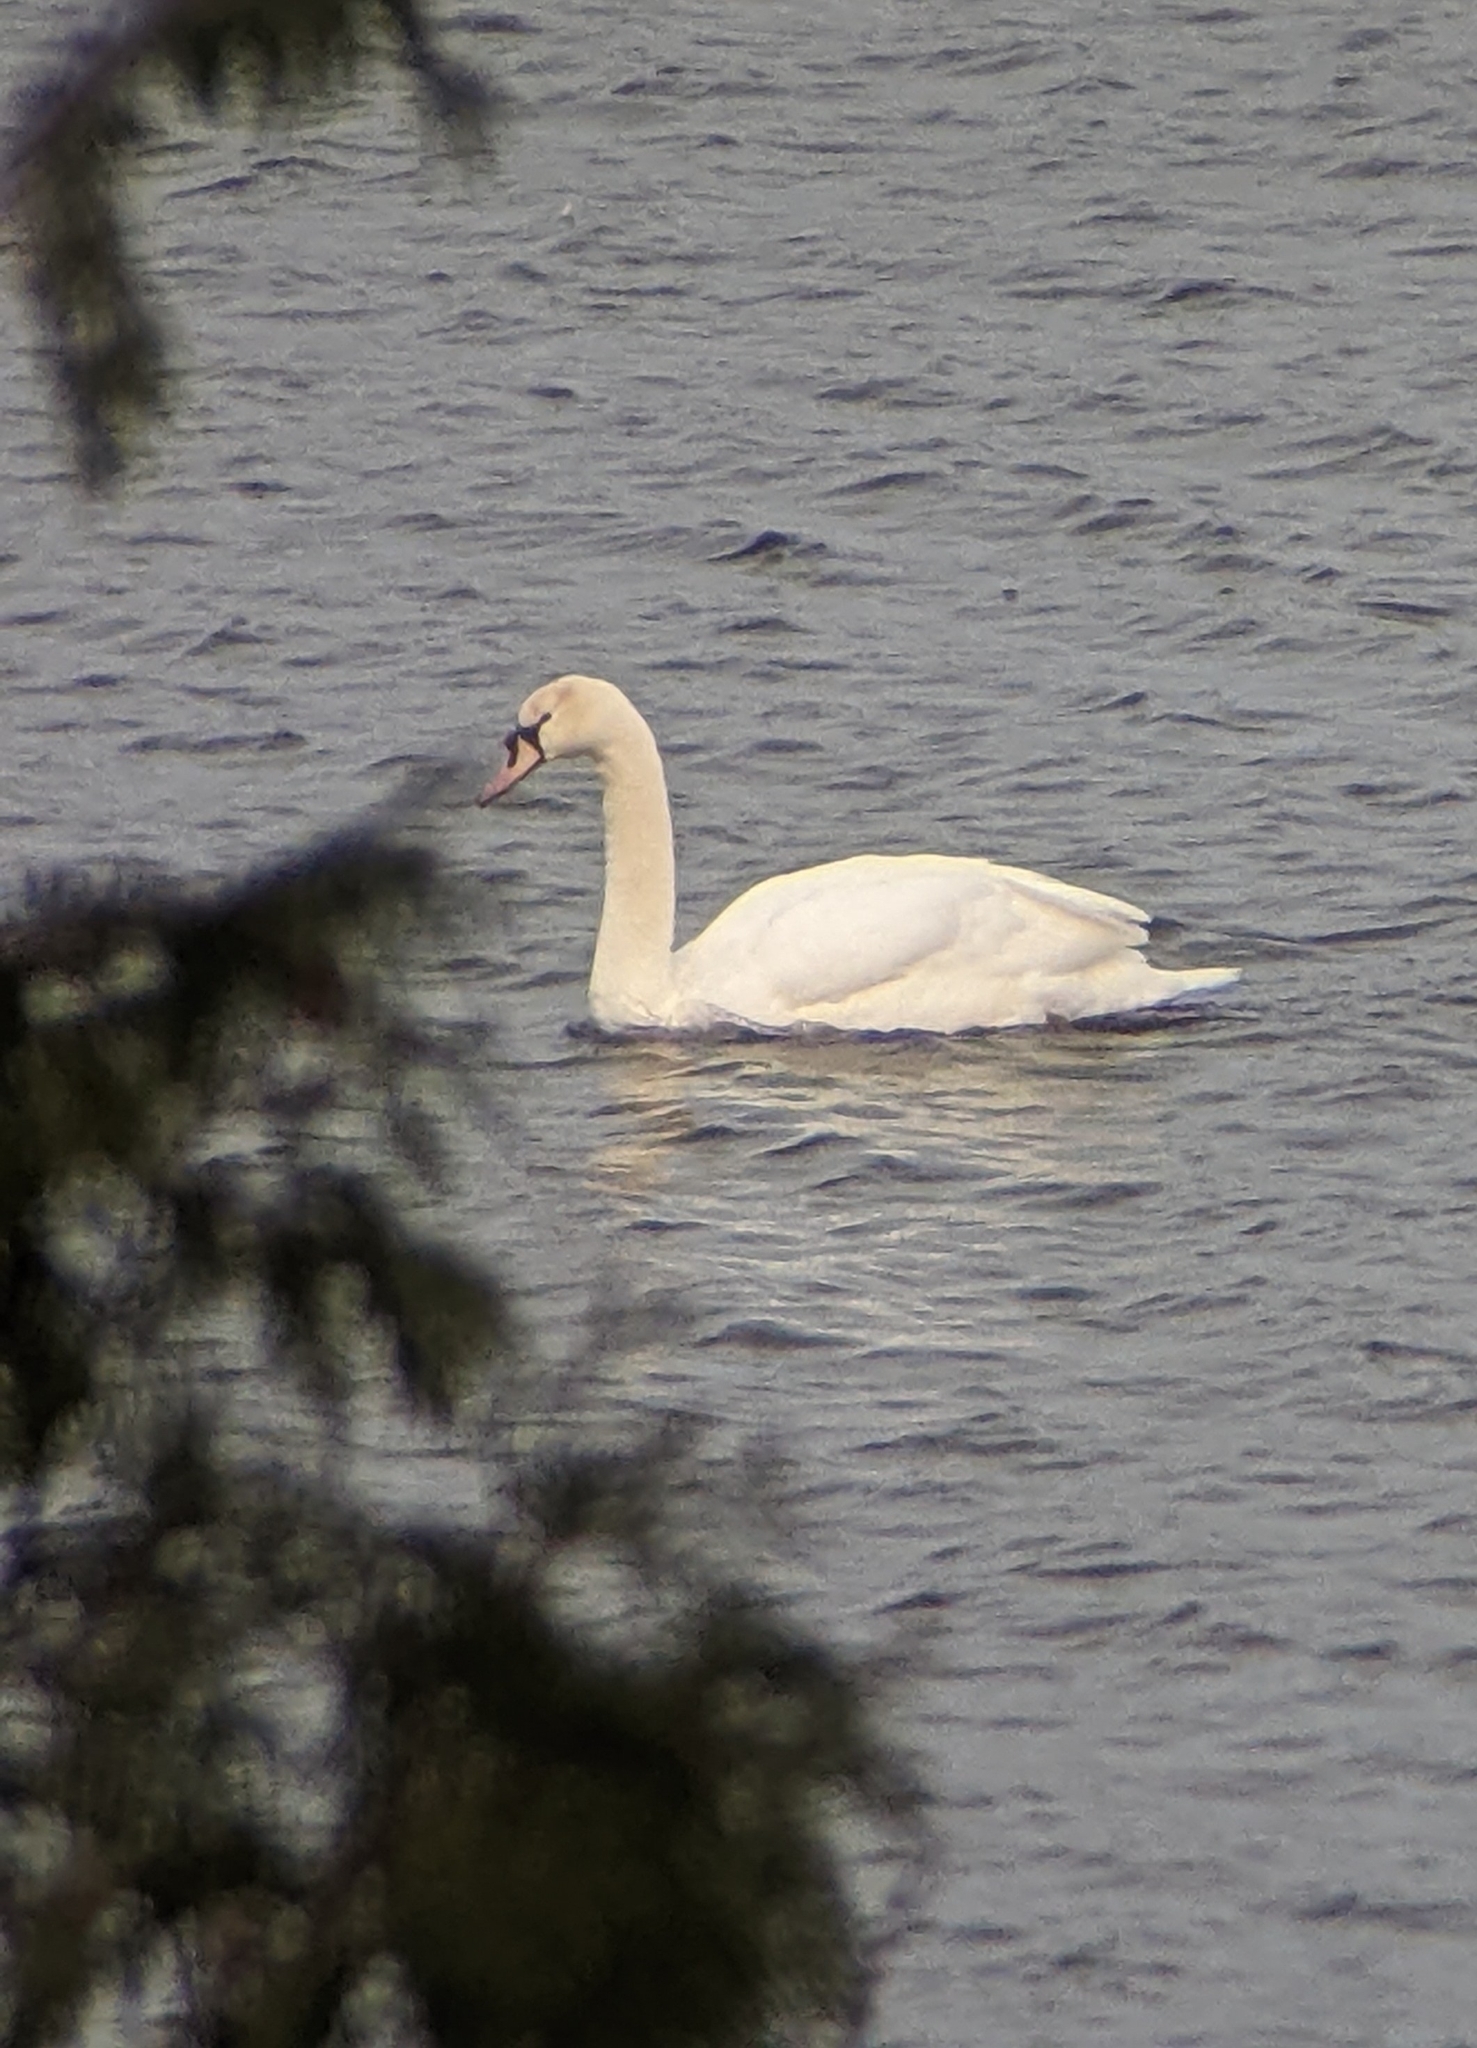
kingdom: Animalia
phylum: Chordata
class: Aves
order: Anseriformes
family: Anatidae
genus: Cygnus
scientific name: Cygnus olor
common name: Mute swan
